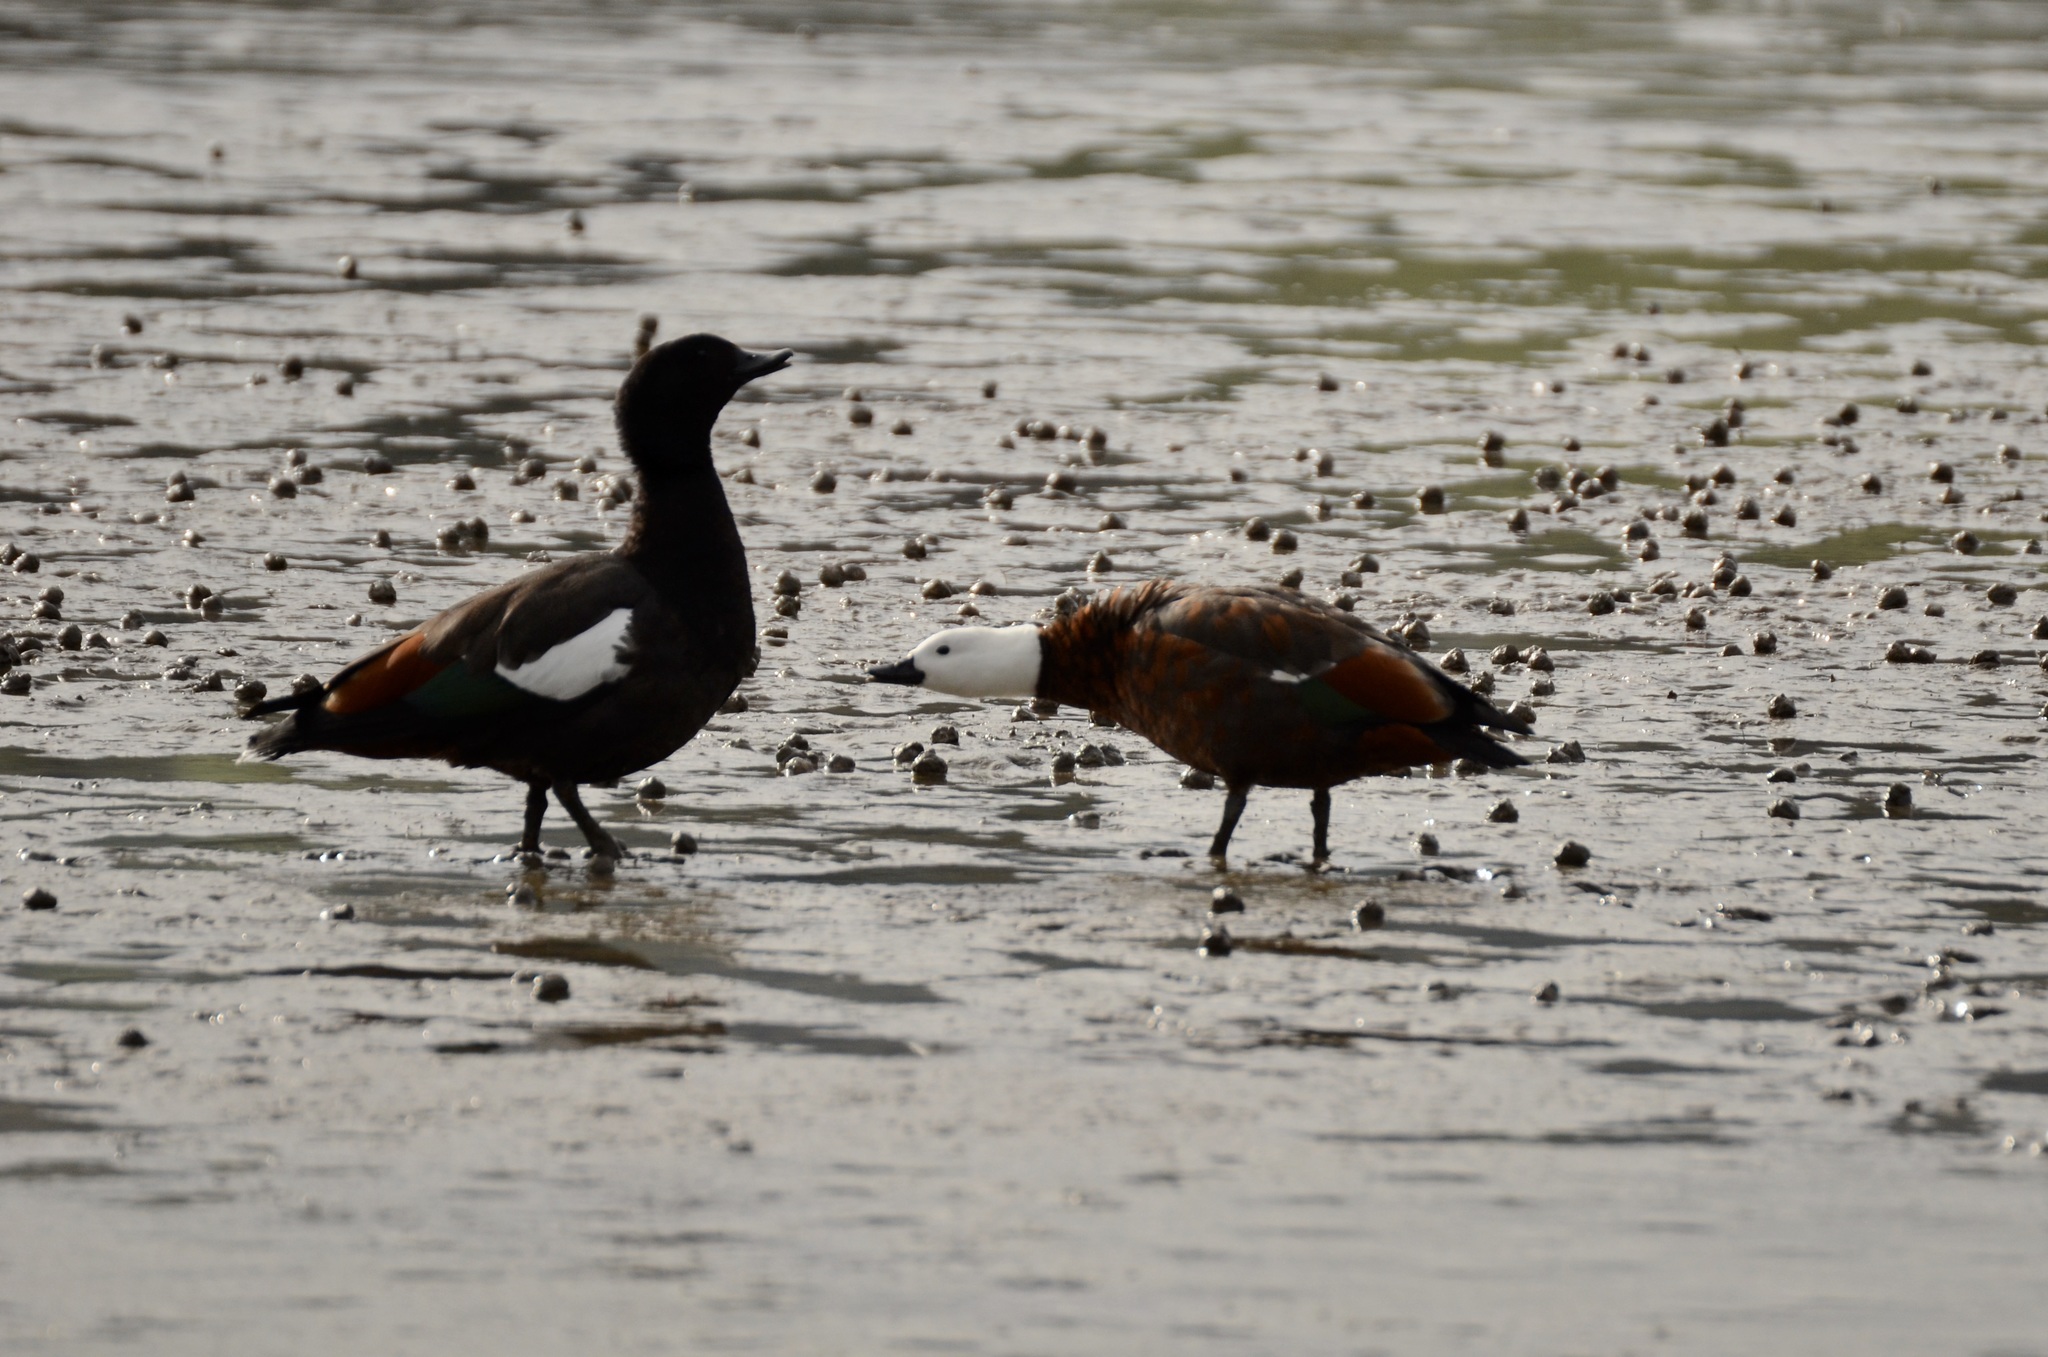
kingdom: Animalia
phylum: Chordata
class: Aves
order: Anseriformes
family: Anatidae
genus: Tadorna
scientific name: Tadorna variegata
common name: Paradise shelduck
